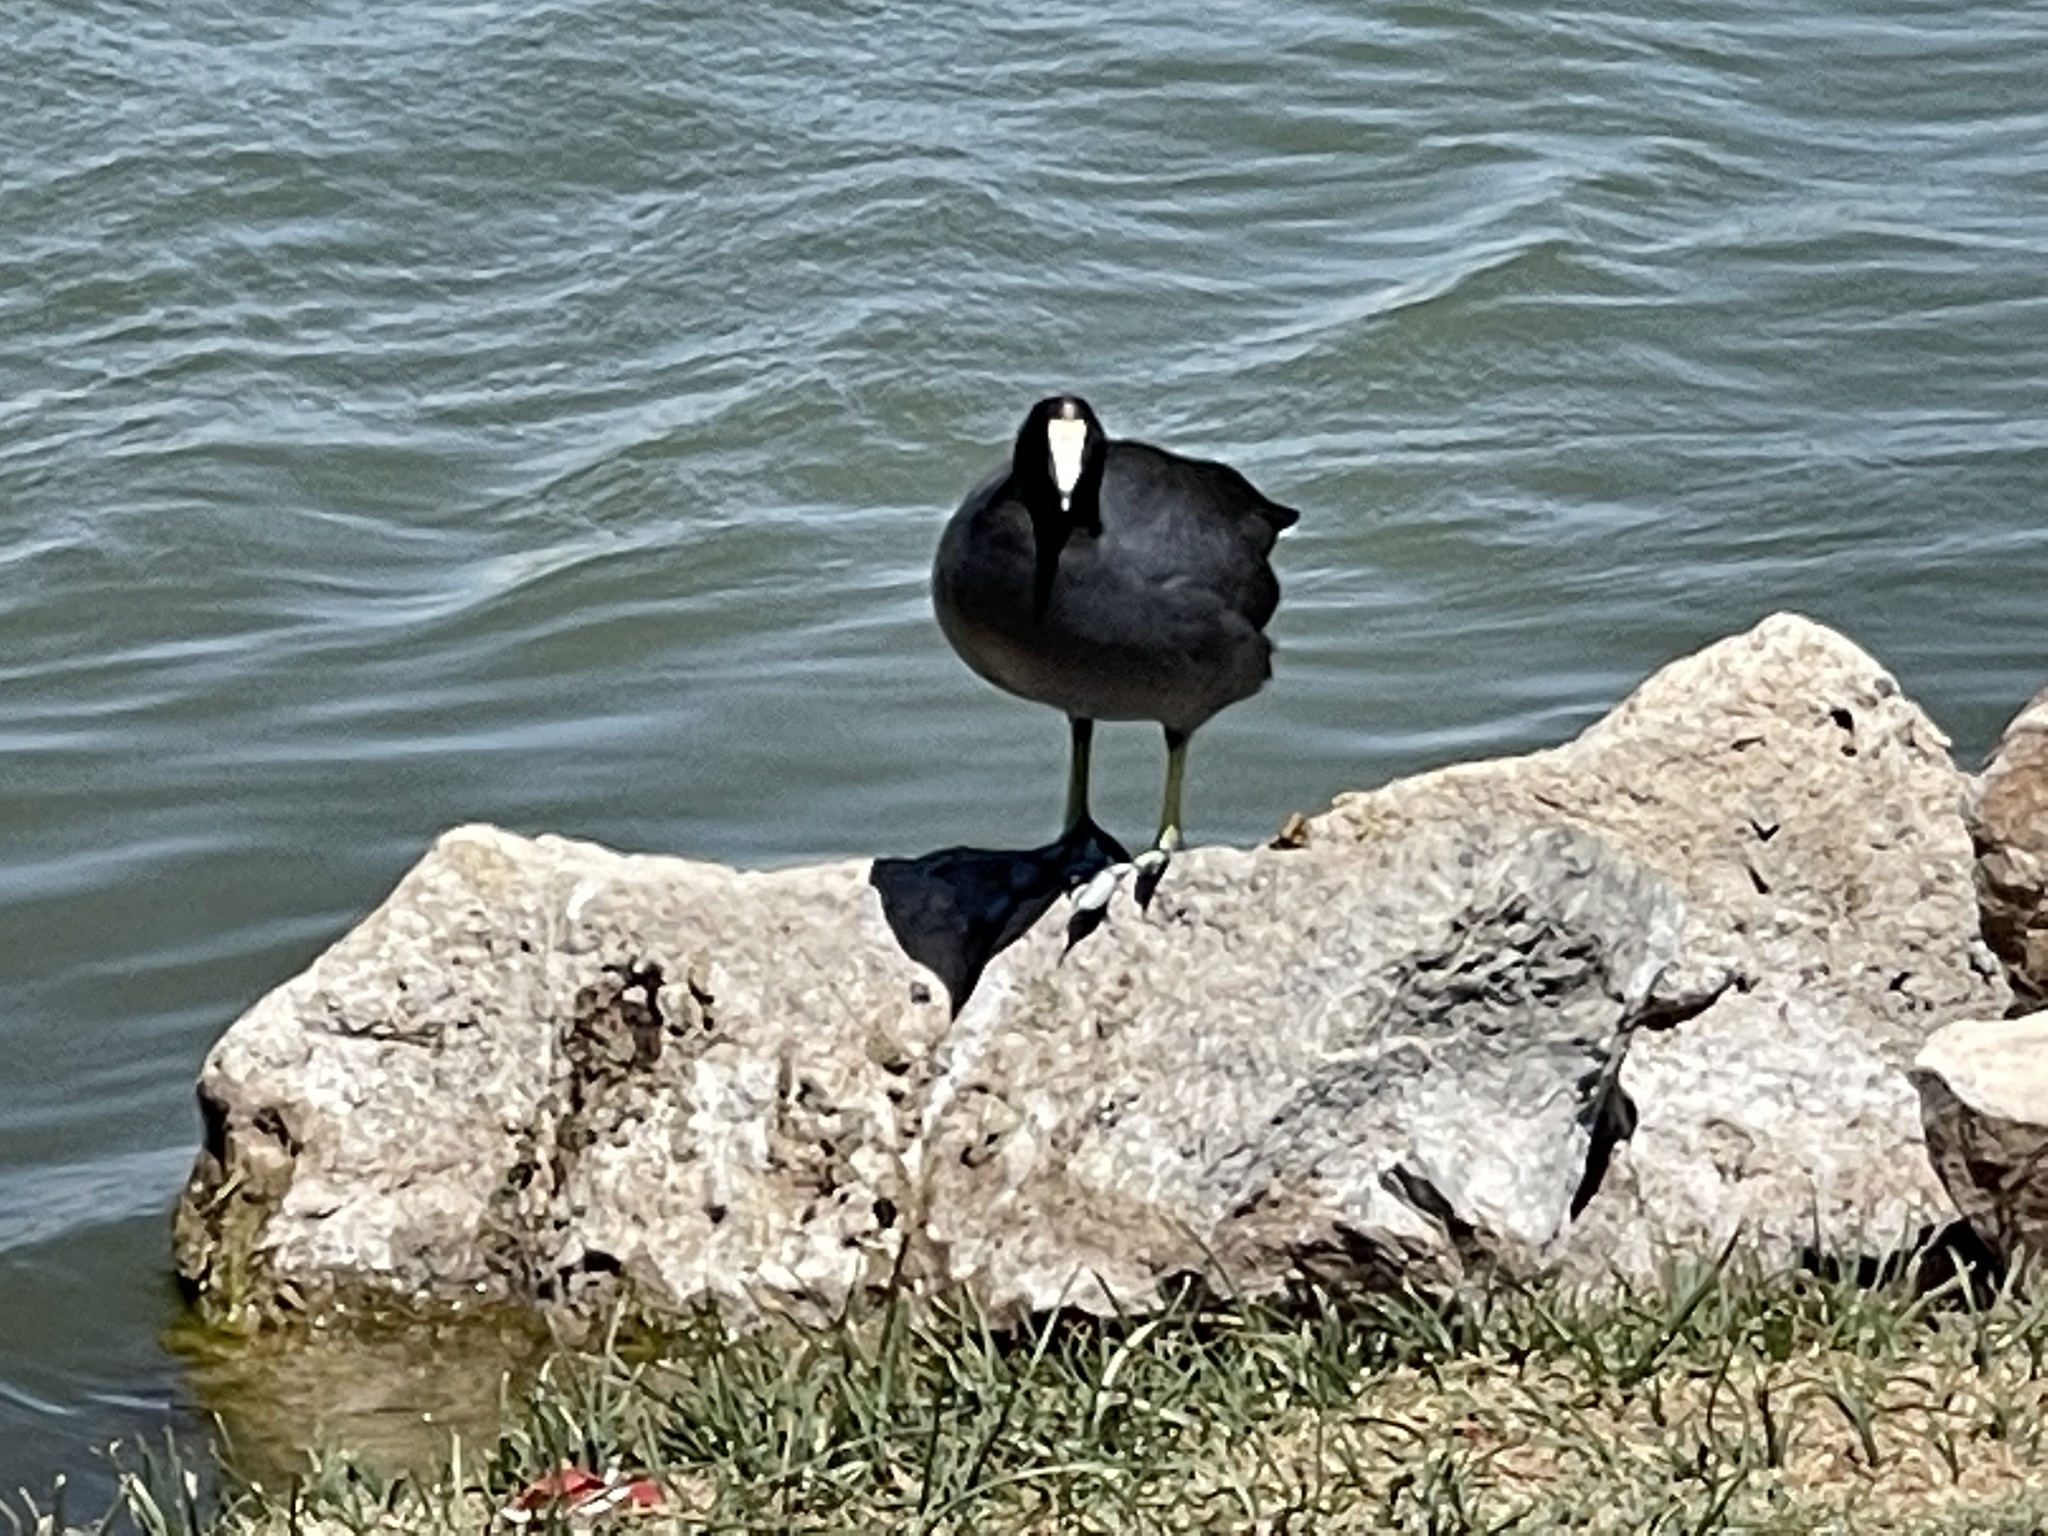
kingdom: Animalia
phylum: Chordata
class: Aves
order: Gruiformes
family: Rallidae
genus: Fulica
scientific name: Fulica americana
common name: American coot
